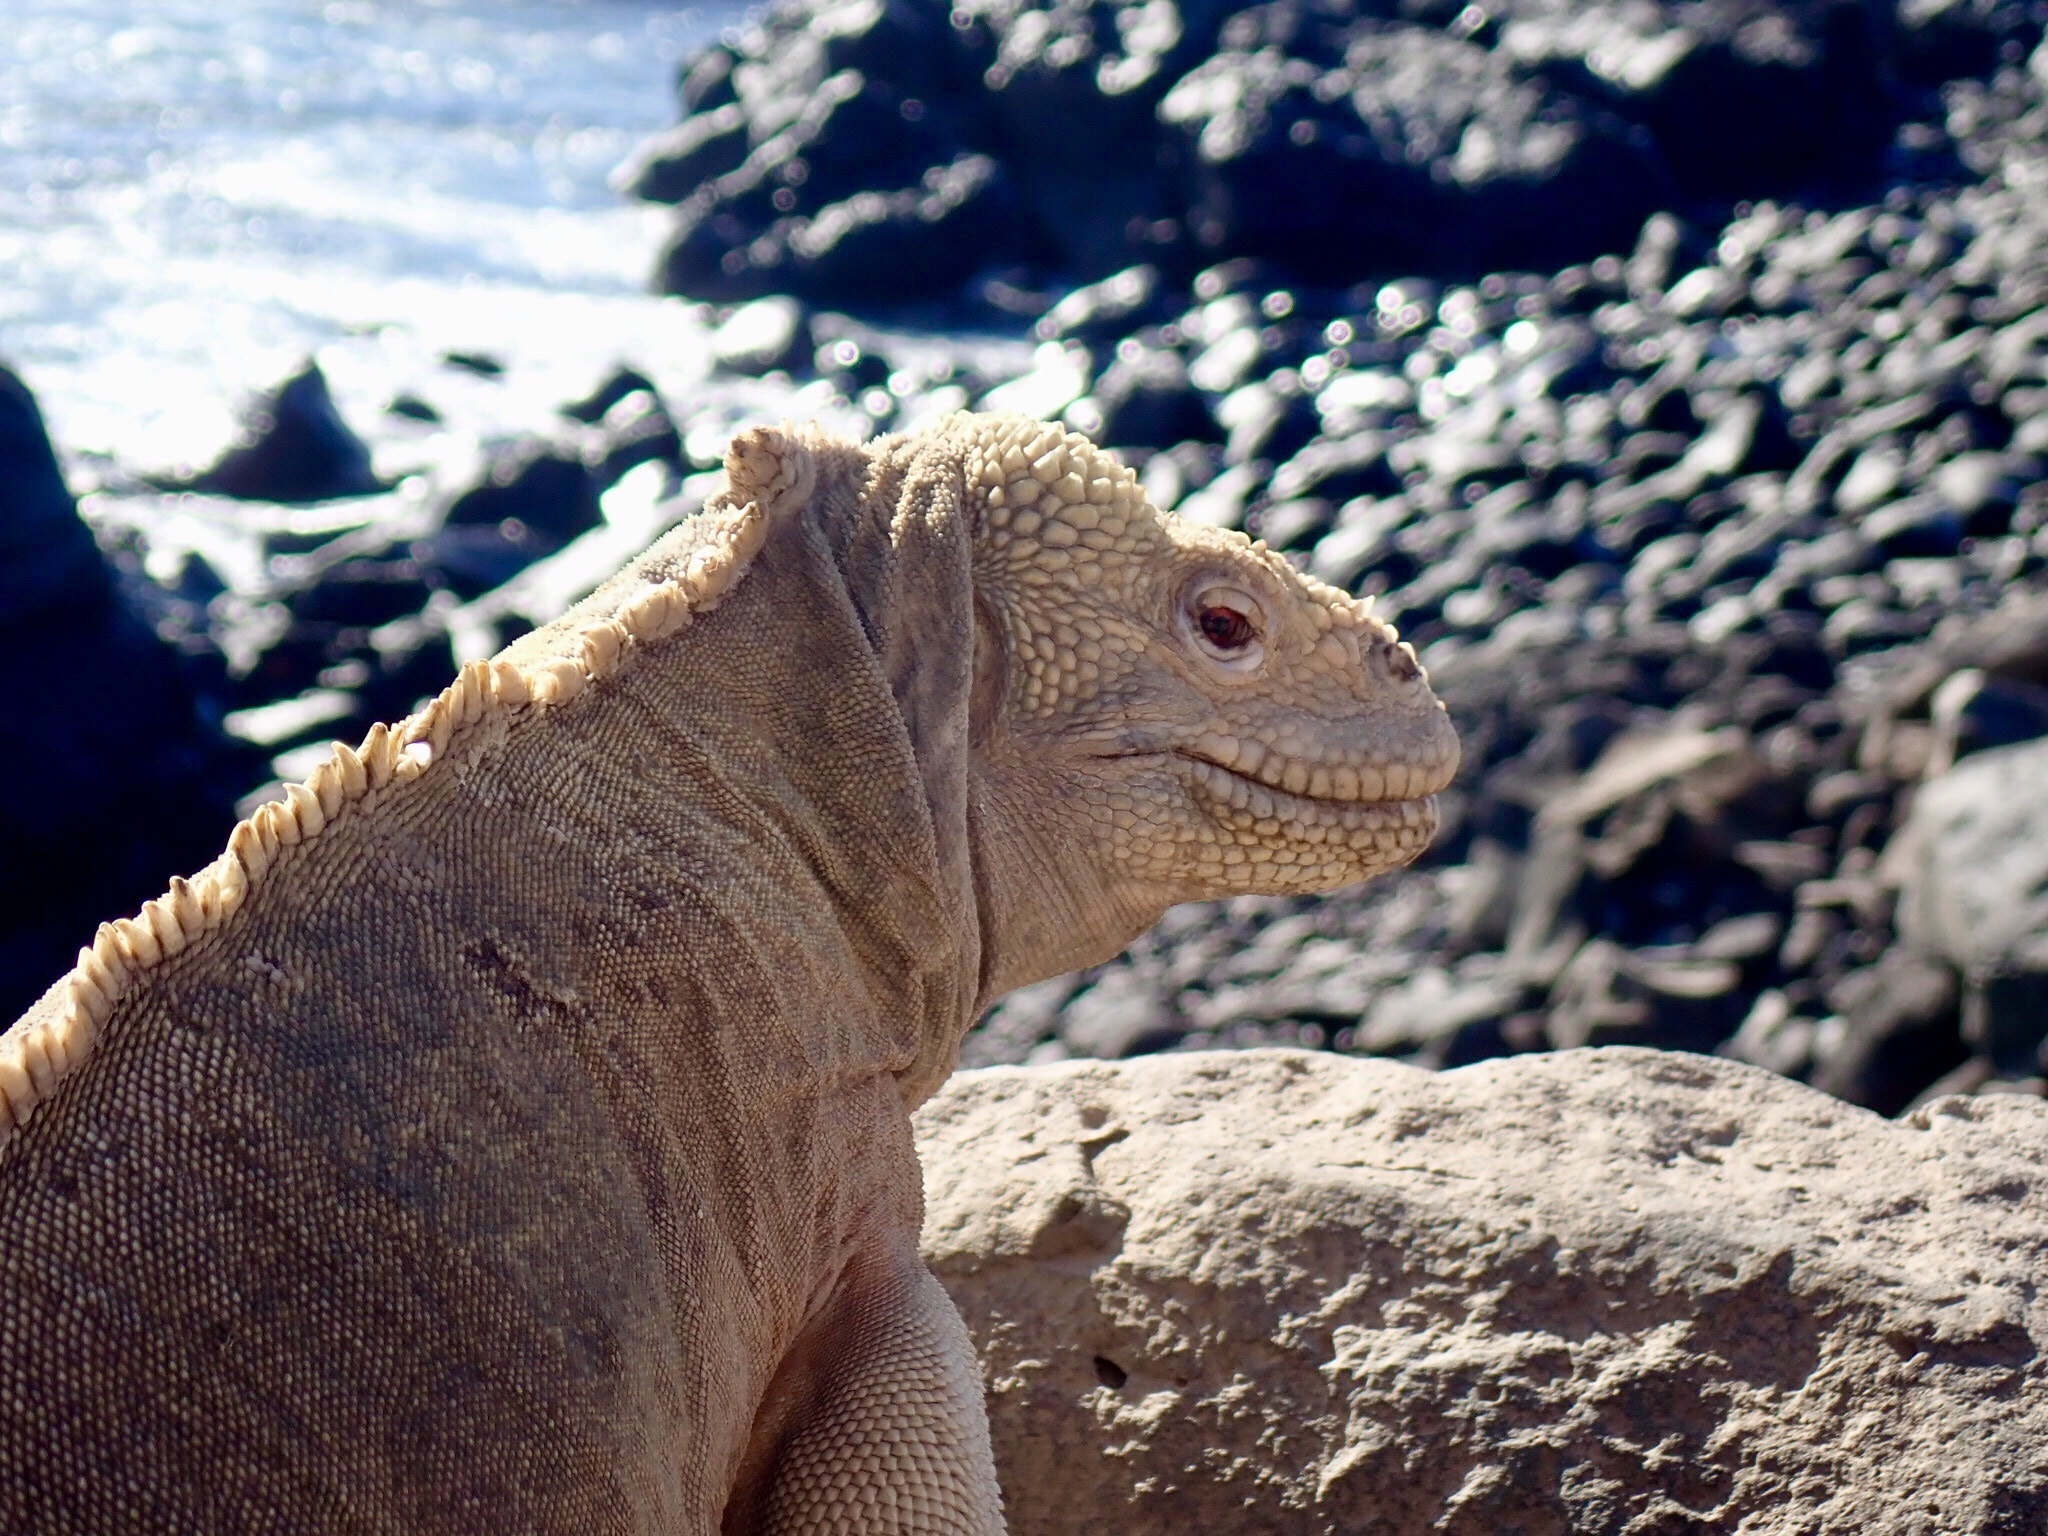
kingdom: Animalia
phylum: Chordata
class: Squamata
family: Iguanidae
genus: Conolophus
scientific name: Conolophus pallidus
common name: Santa fe land iguana
